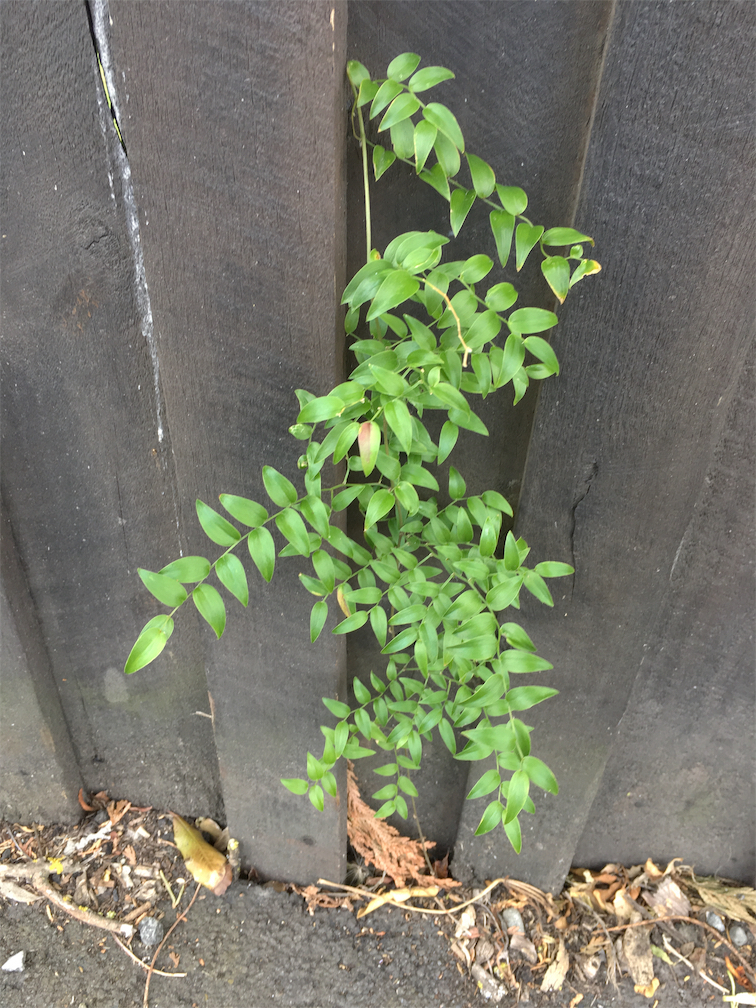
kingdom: Plantae
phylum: Tracheophyta
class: Liliopsida
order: Asparagales
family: Asparagaceae
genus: Asparagus
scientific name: Asparagus asparagoides
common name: African asparagus fern
